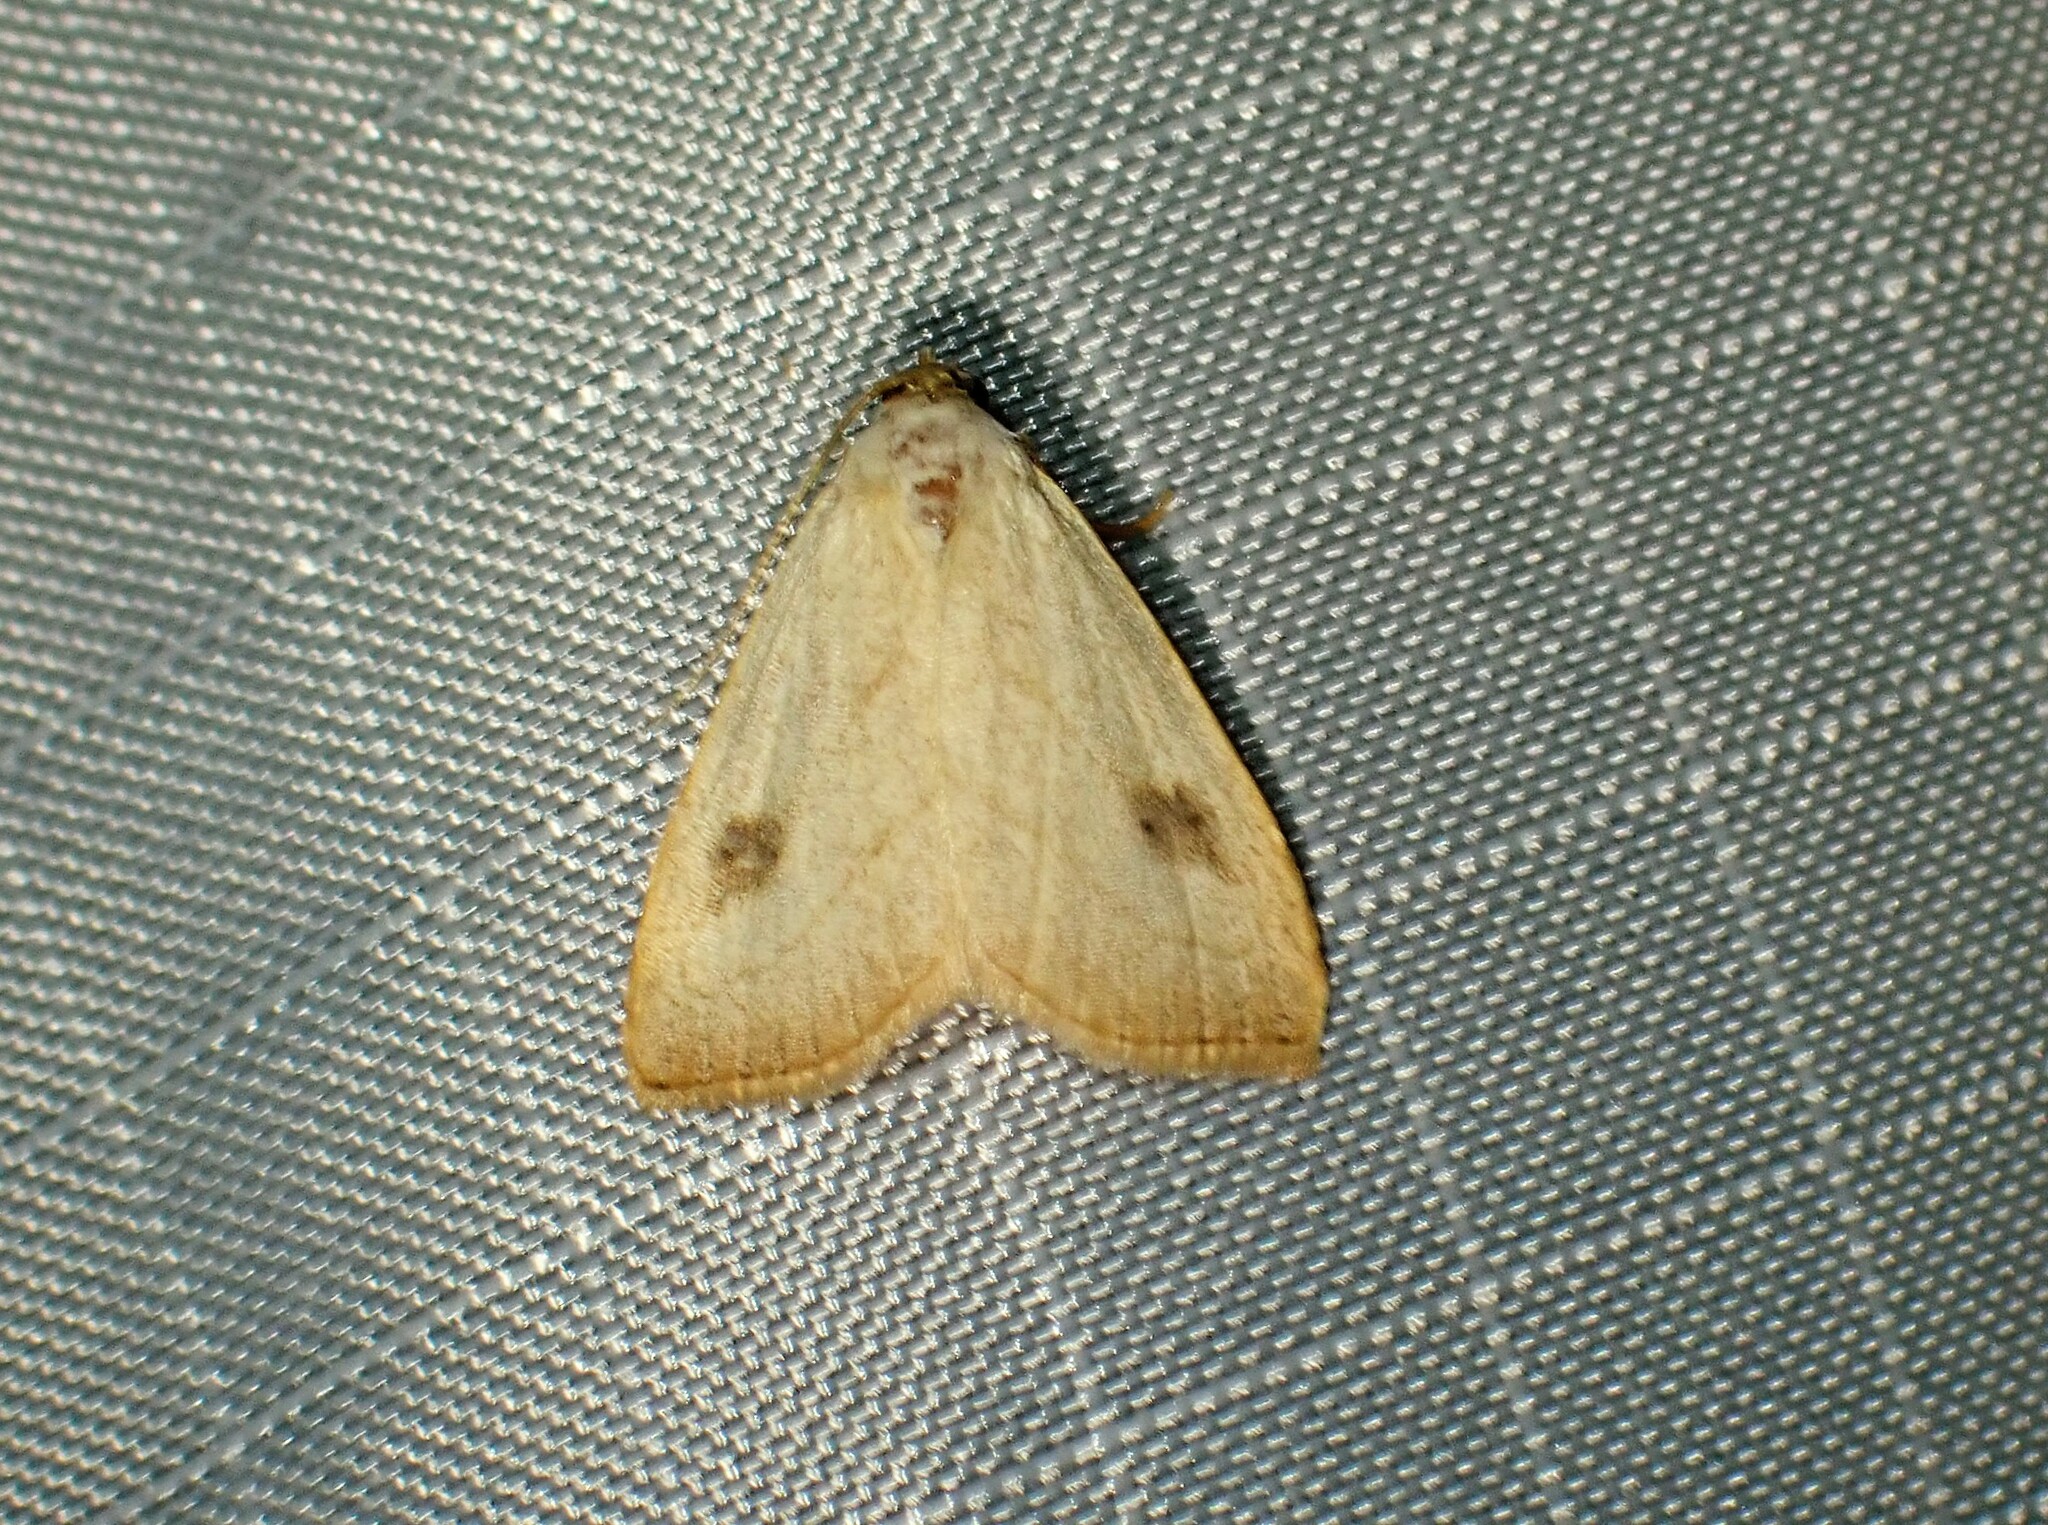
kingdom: Animalia
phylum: Arthropoda
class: Insecta
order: Lepidoptera
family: Erebidae
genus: Rivula
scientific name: Rivula propinqualis
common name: Spotted grass moth
